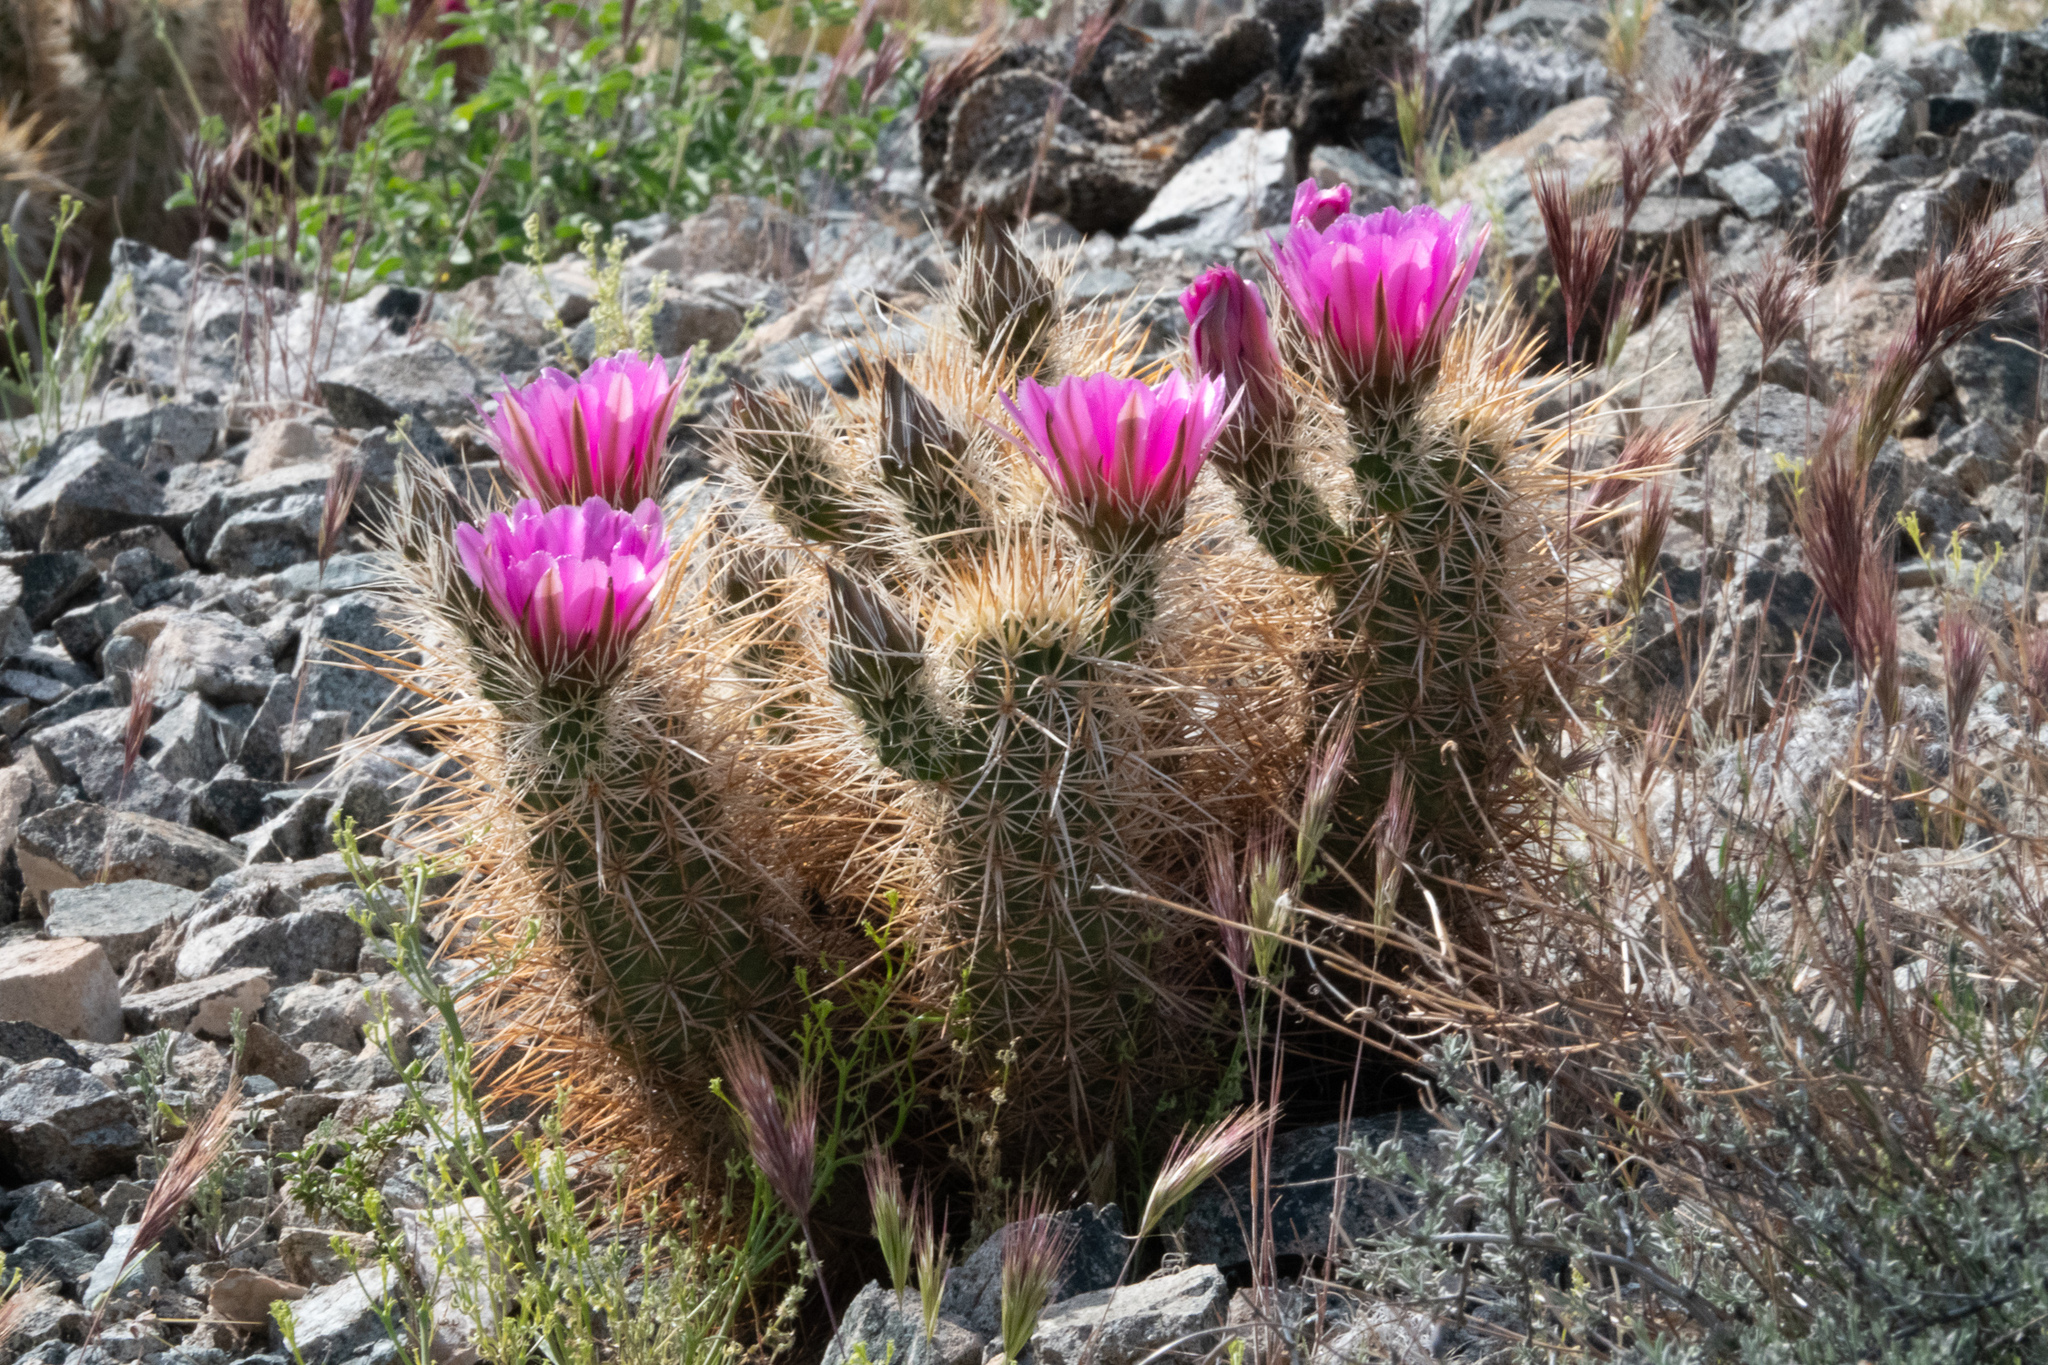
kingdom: Plantae
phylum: Tracheophyta
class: Magnoliopsida
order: Caryophyllales
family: Cactaceae
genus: Echinocereus
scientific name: Echinocereus engelmannii
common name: Engelmann's hedgehog cactus
